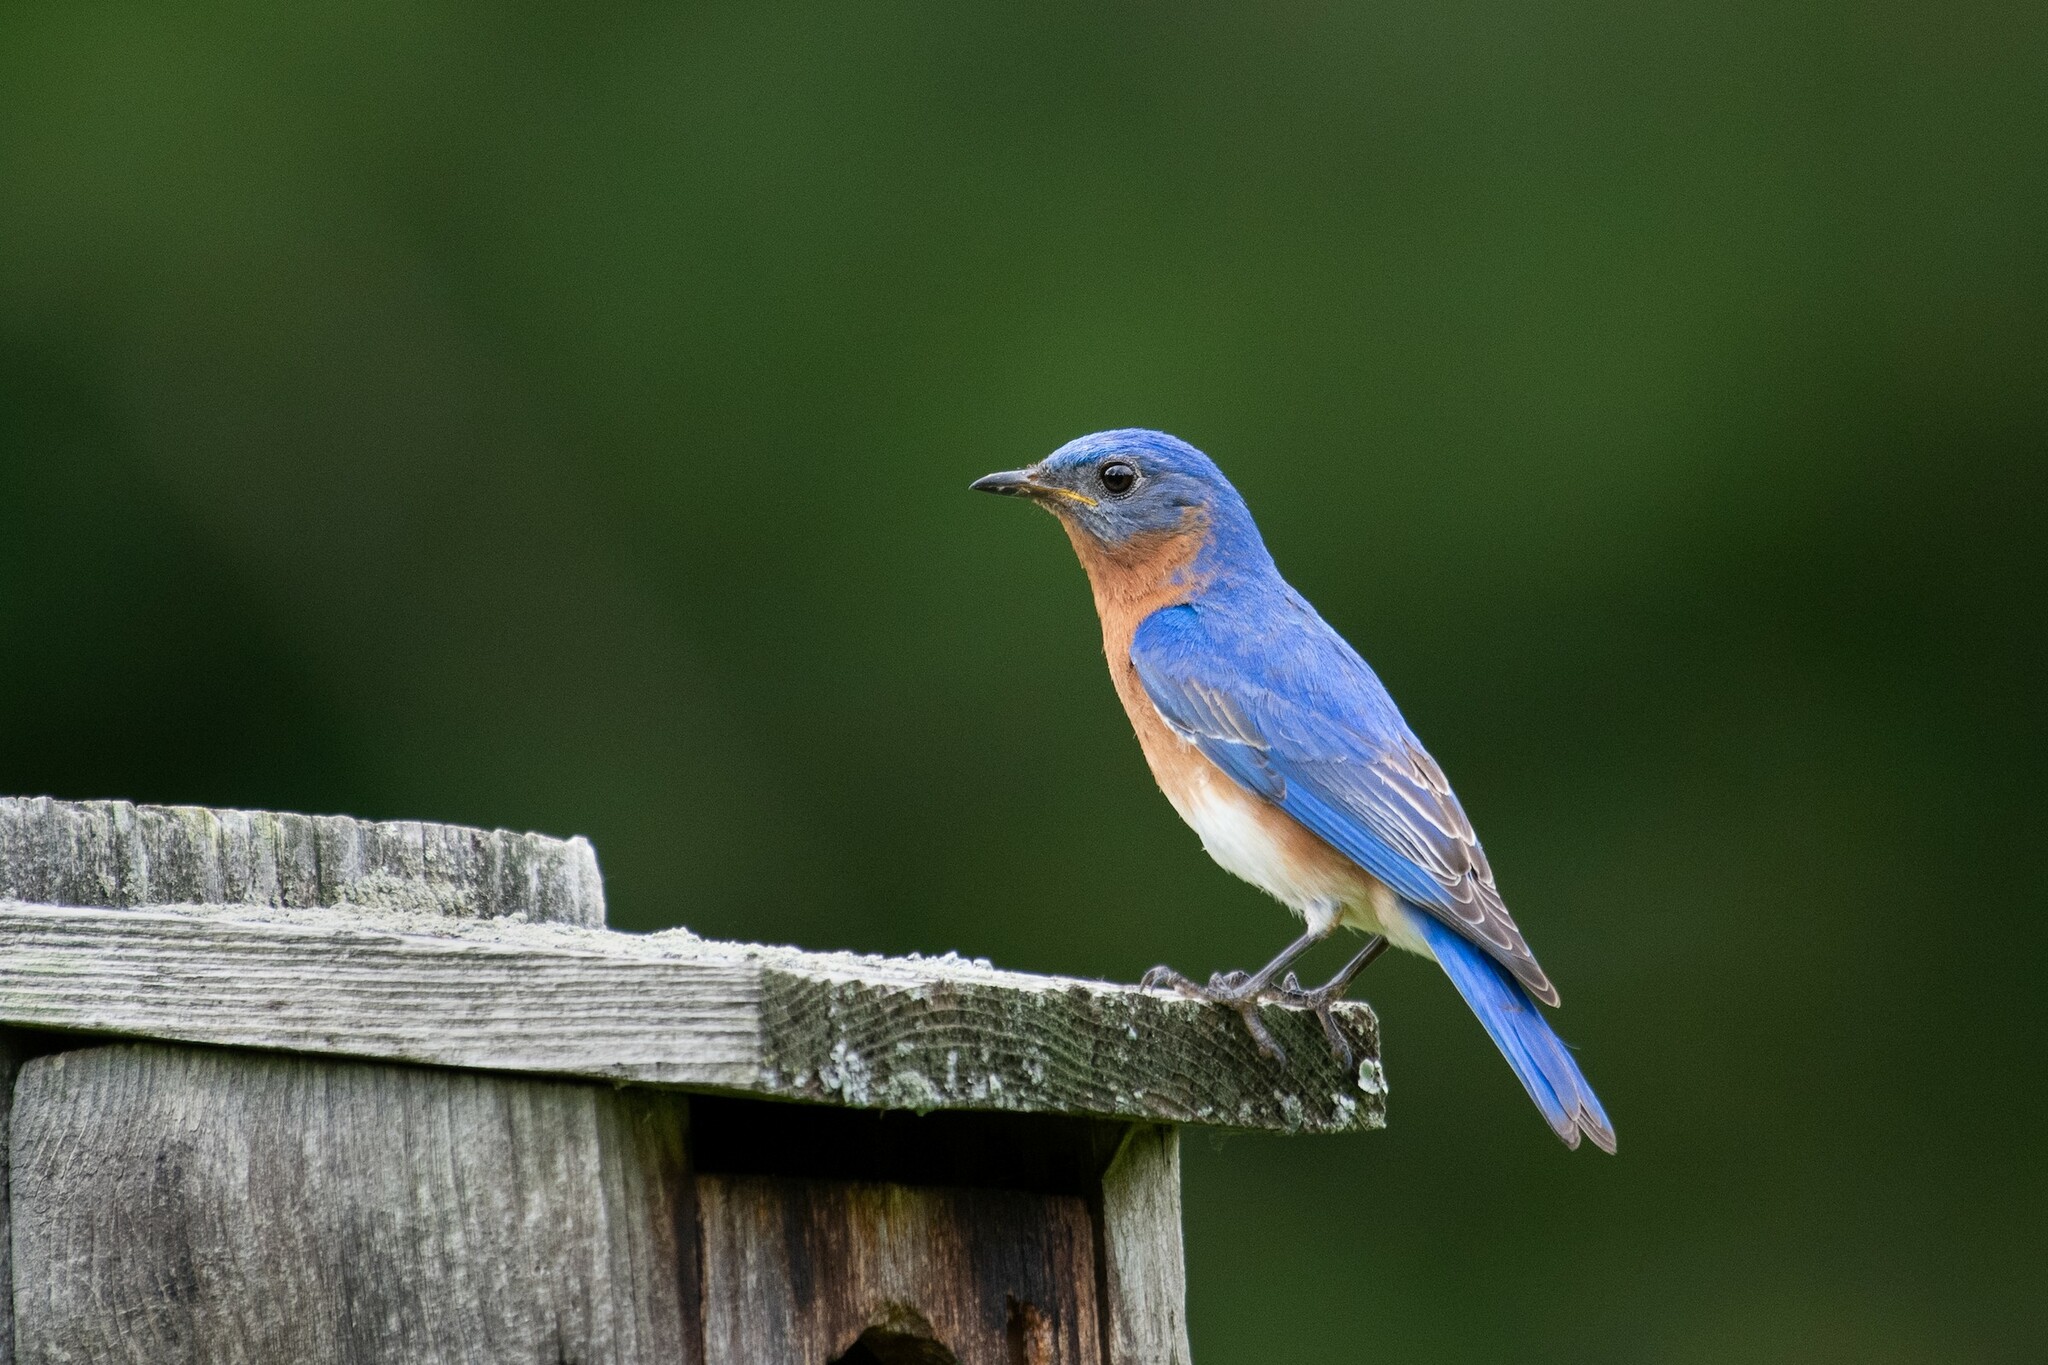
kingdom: Animalia
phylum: Chordata
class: Aves
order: Passeriformes
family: Turdidae
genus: Sialia
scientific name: Sialia sialis
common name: Eastern bluebird
